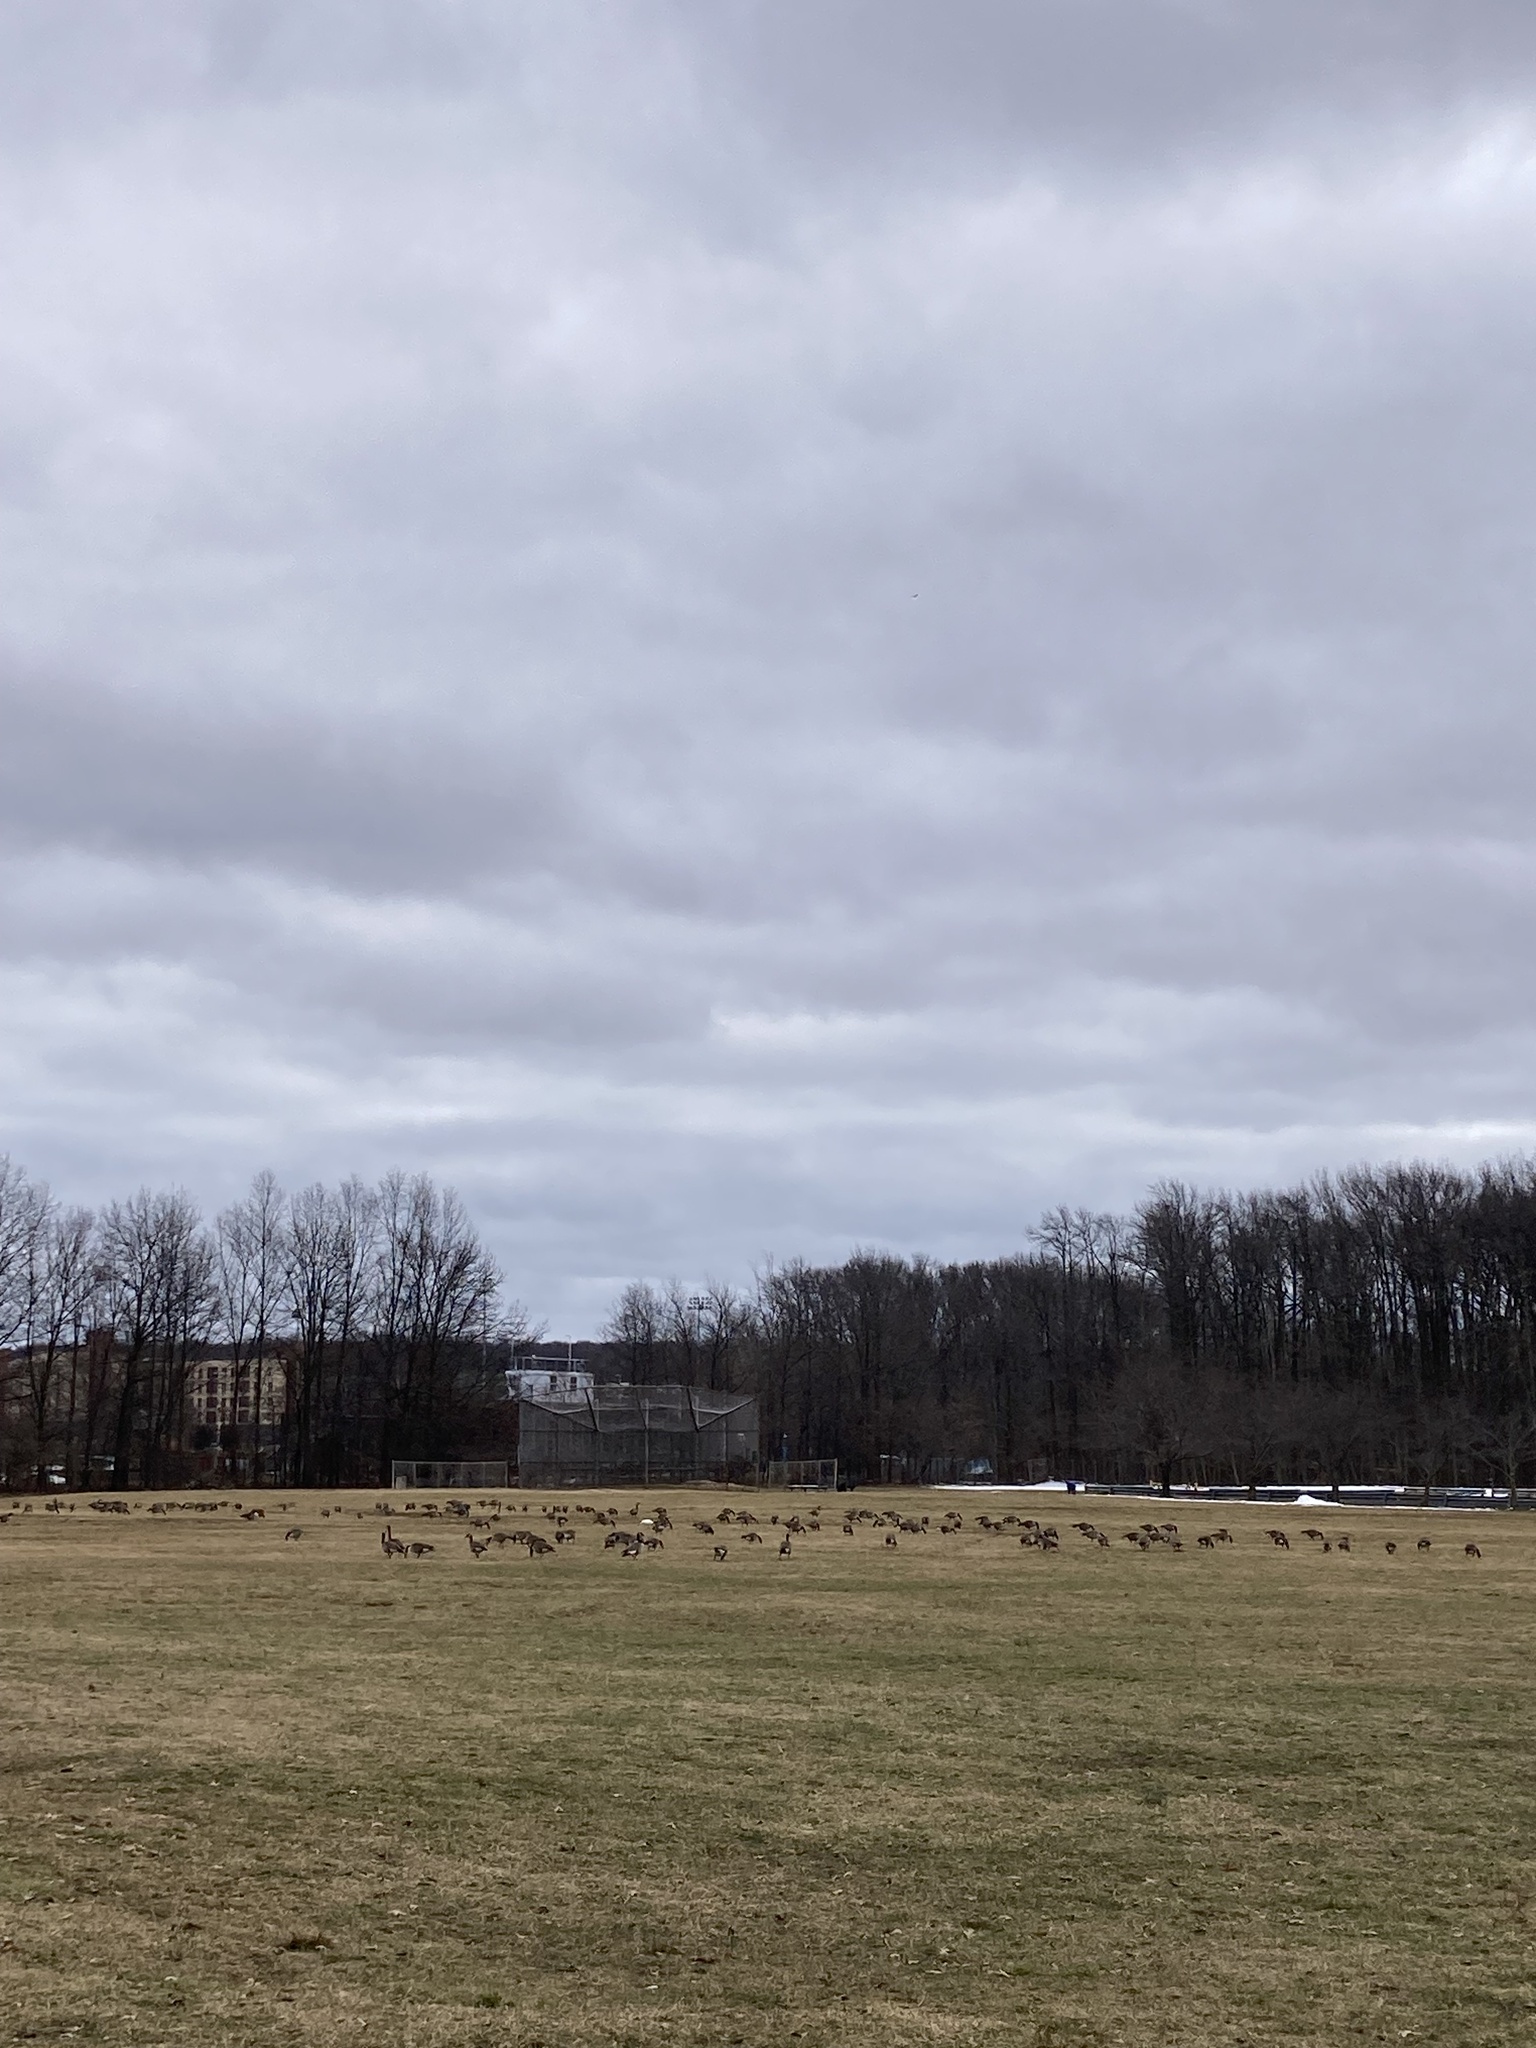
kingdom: Animalia
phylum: Chordata
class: Aves
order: Anseriformes
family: Anatidae
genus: Anser
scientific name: Anser rossii
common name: Ross's goose
